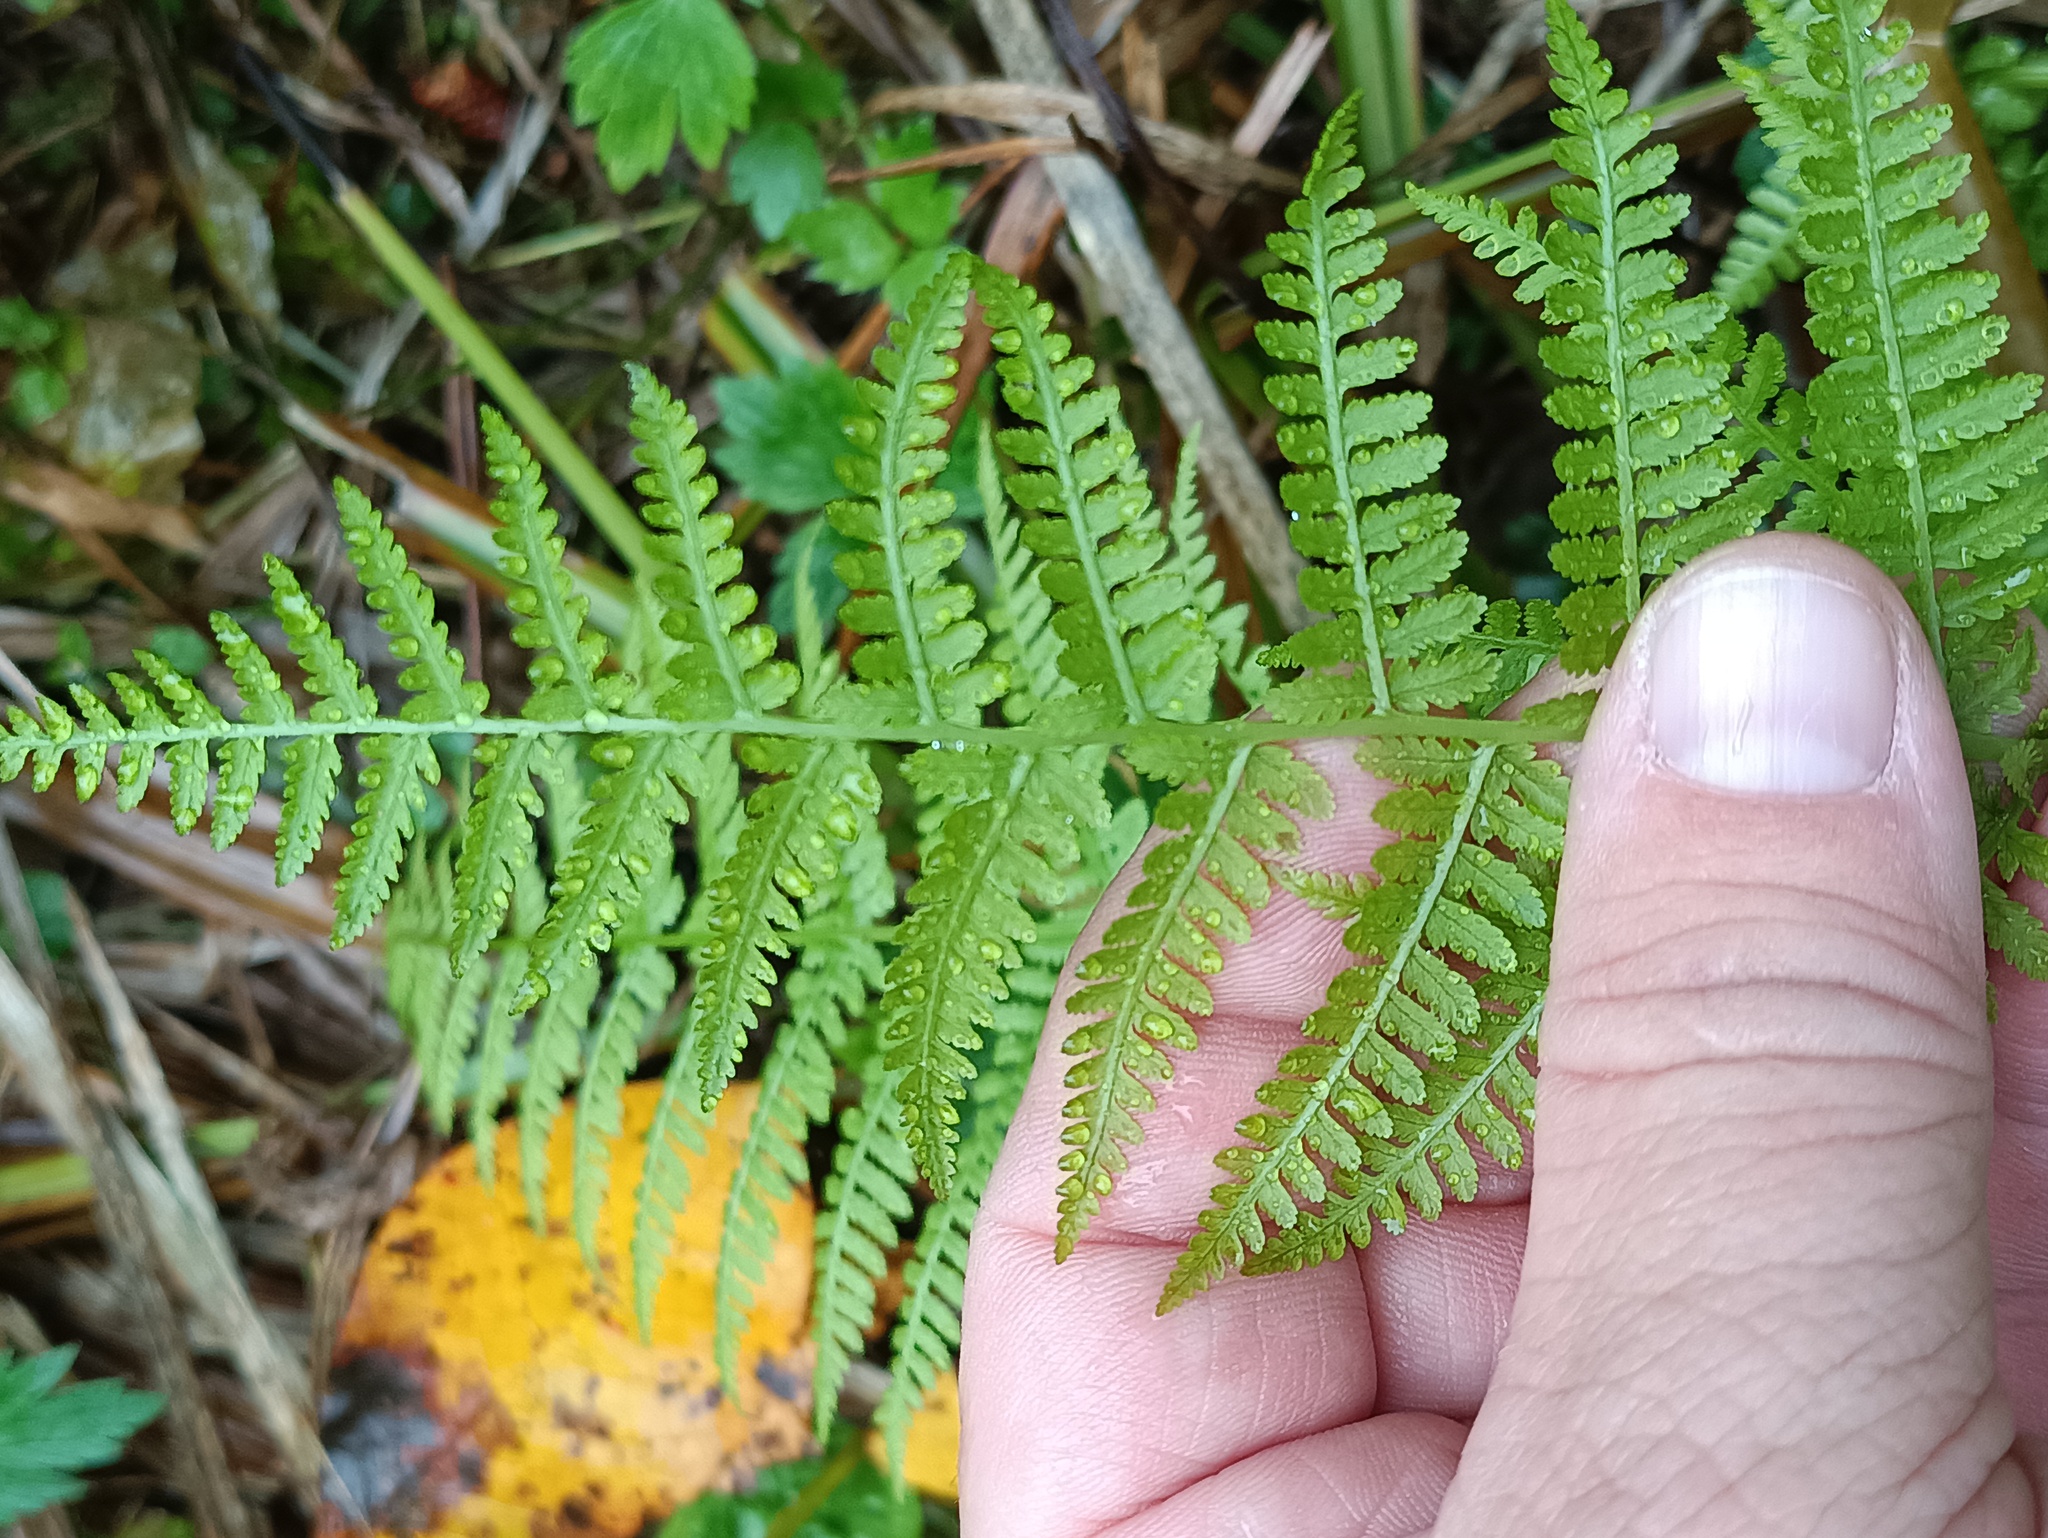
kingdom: Plantae
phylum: Tracheophyta
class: Polypodiopsida
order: Polypodiales
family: Athyriaceae
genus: Athyrium
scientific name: Athyrium filix-femina
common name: Lady fern
